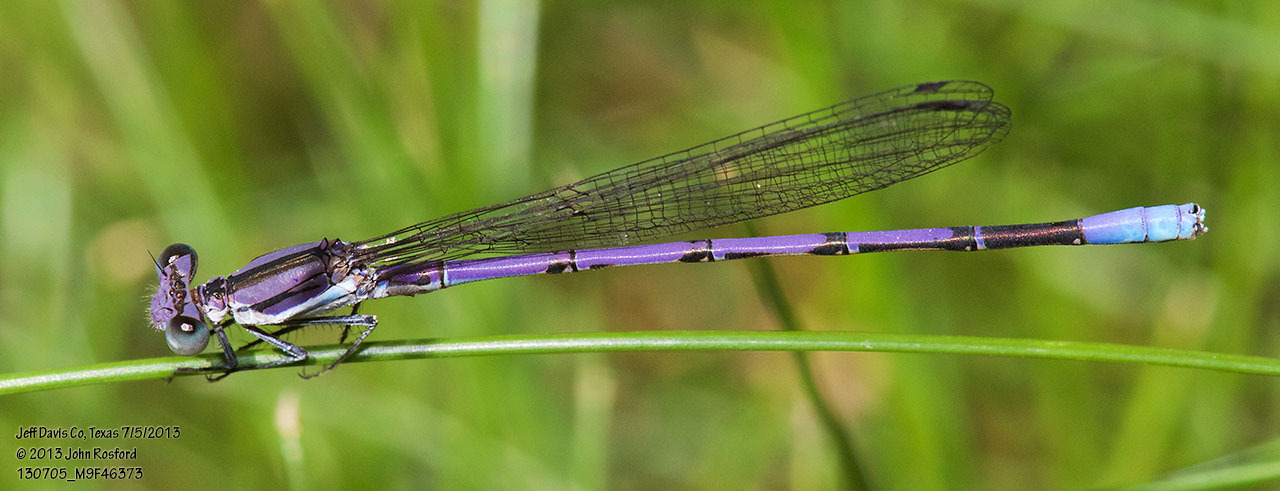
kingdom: Animalia
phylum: Arthropoda
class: Insecta
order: Odonata
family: Coenagrionidae
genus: Argia
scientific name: Argia hinei
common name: Lavender dancer
